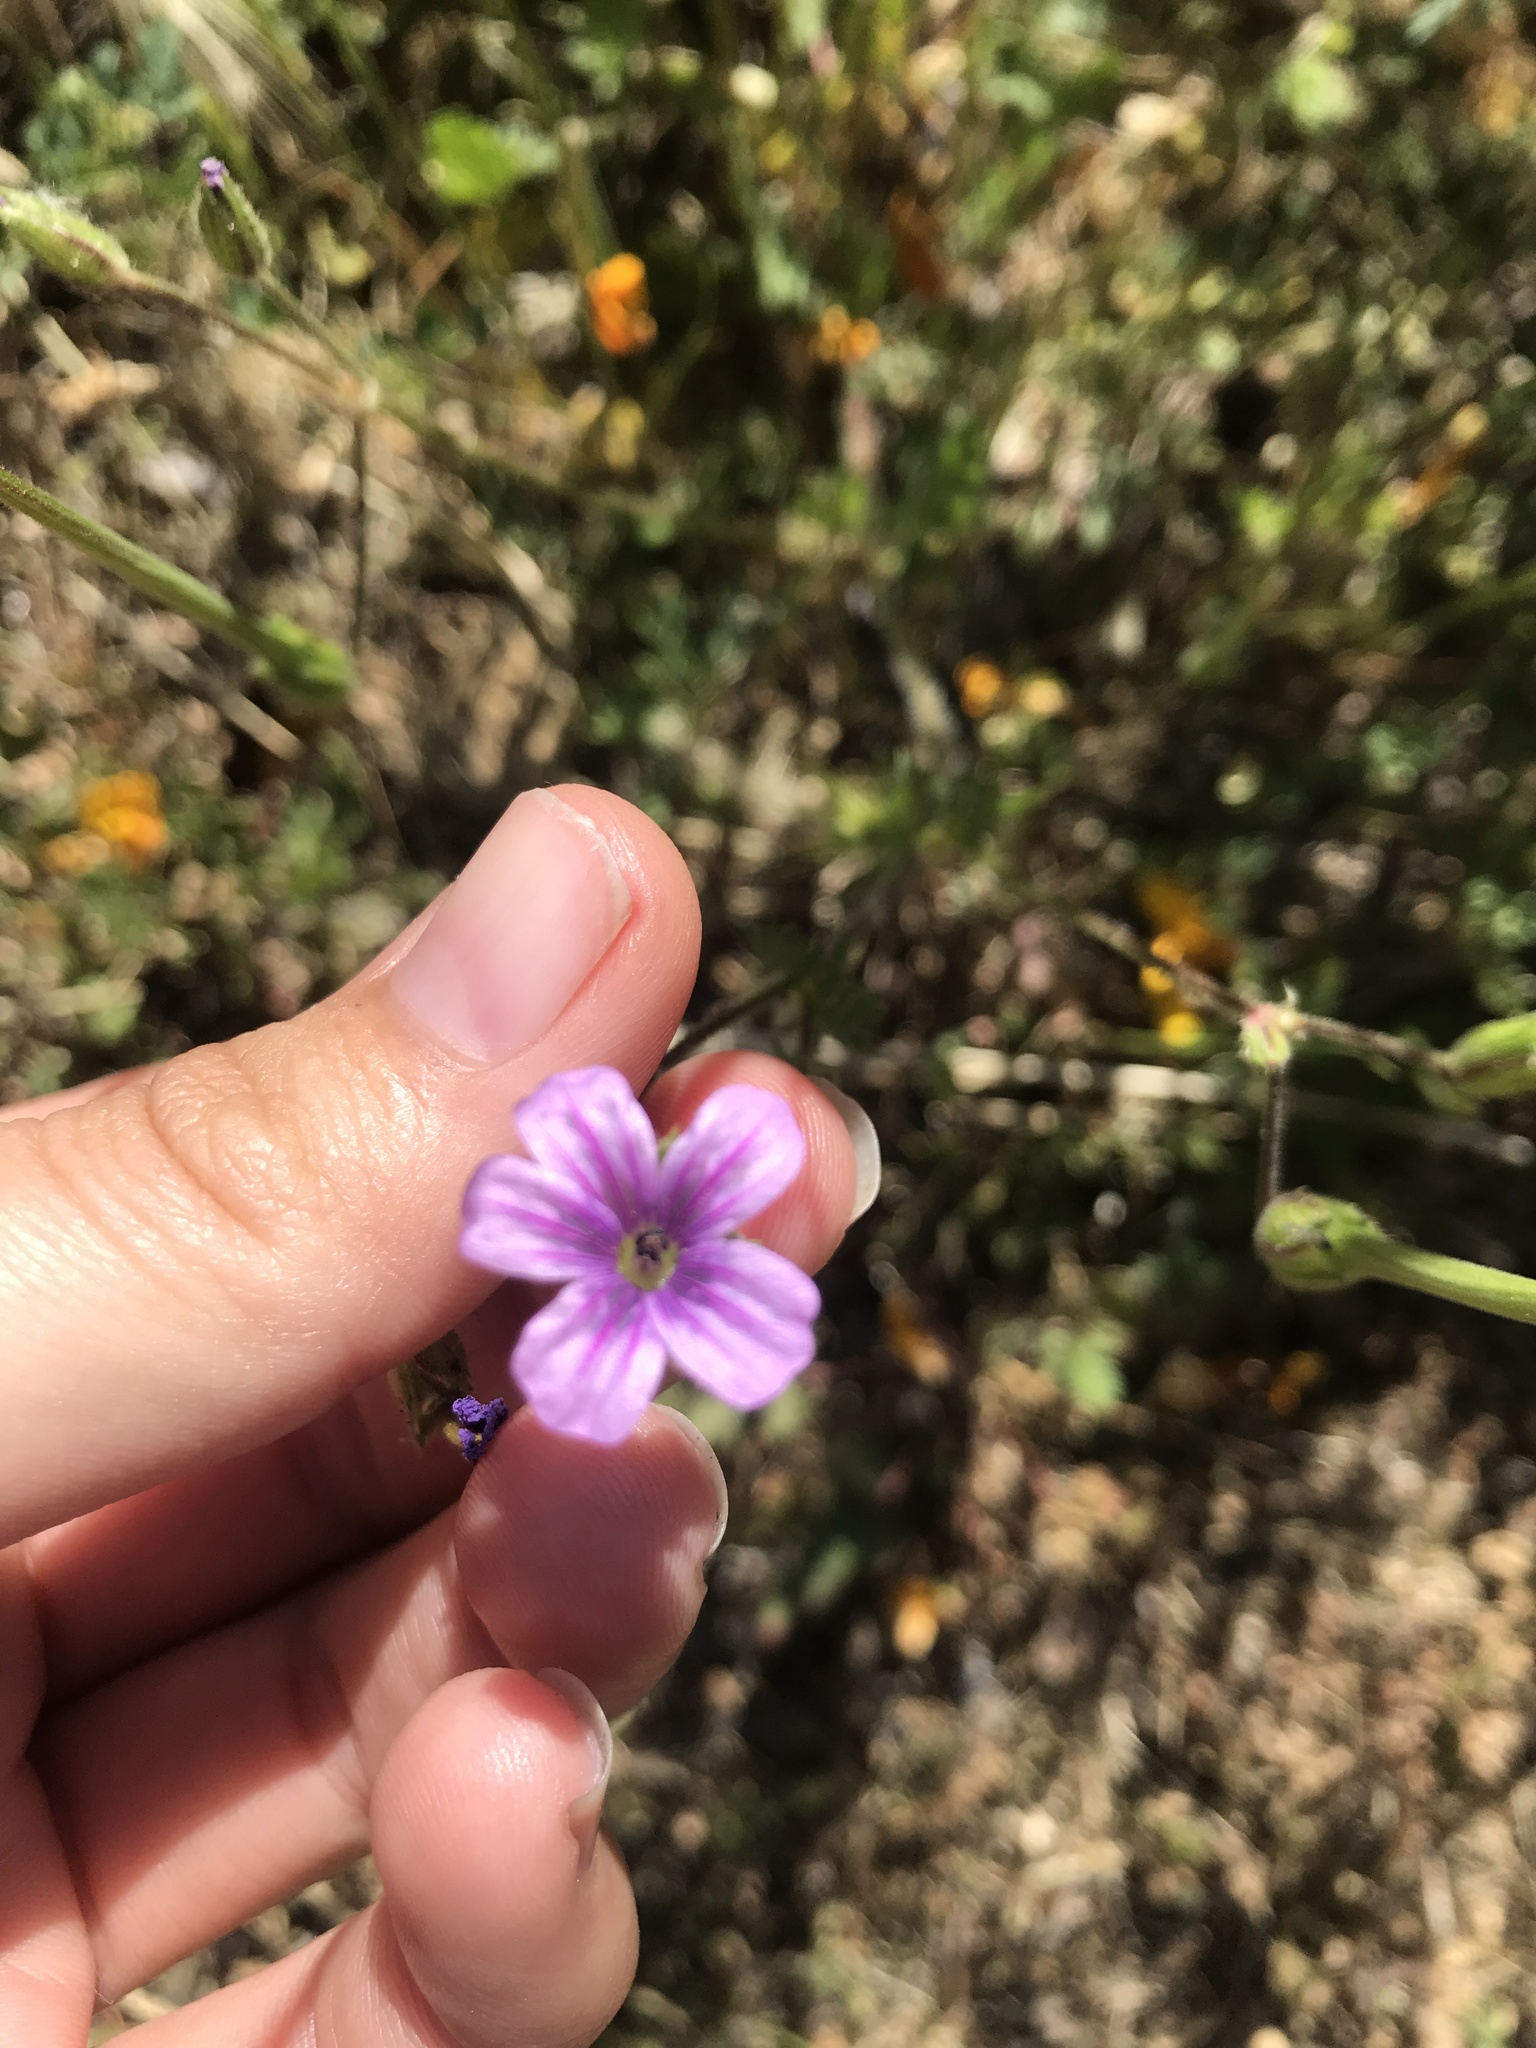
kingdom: Plantae
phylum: Tracheophyta
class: Magnoliopsida
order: Geraniales
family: Geraniaceae
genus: Erodium
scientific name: Erodium botrys
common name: Mediterranean stork's-bill
